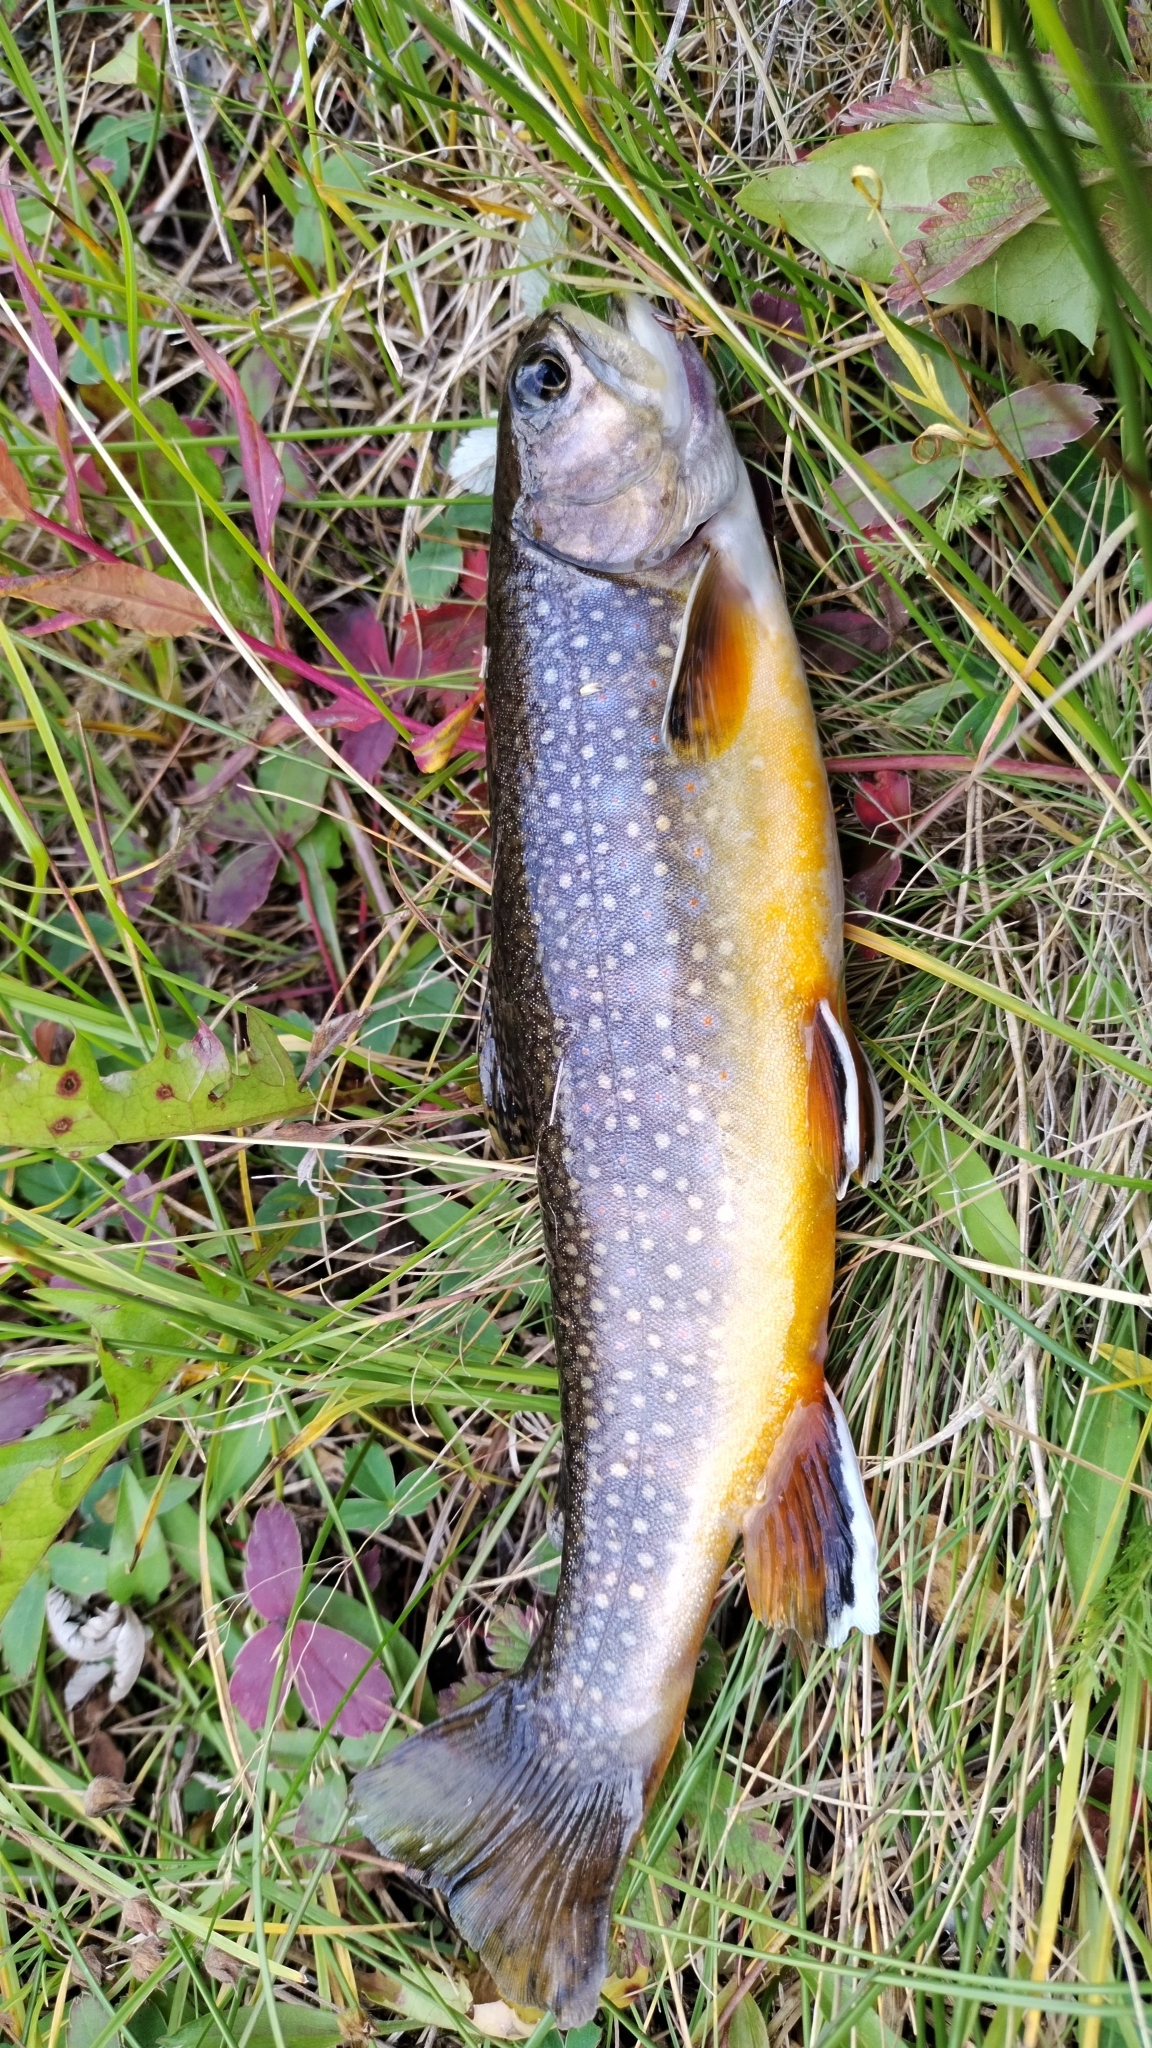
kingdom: Animalia
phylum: Chordata
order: Salmoniformes
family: Salmonidae
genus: Salvelinus
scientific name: Salvelinus fontinalis
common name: Brook trout
